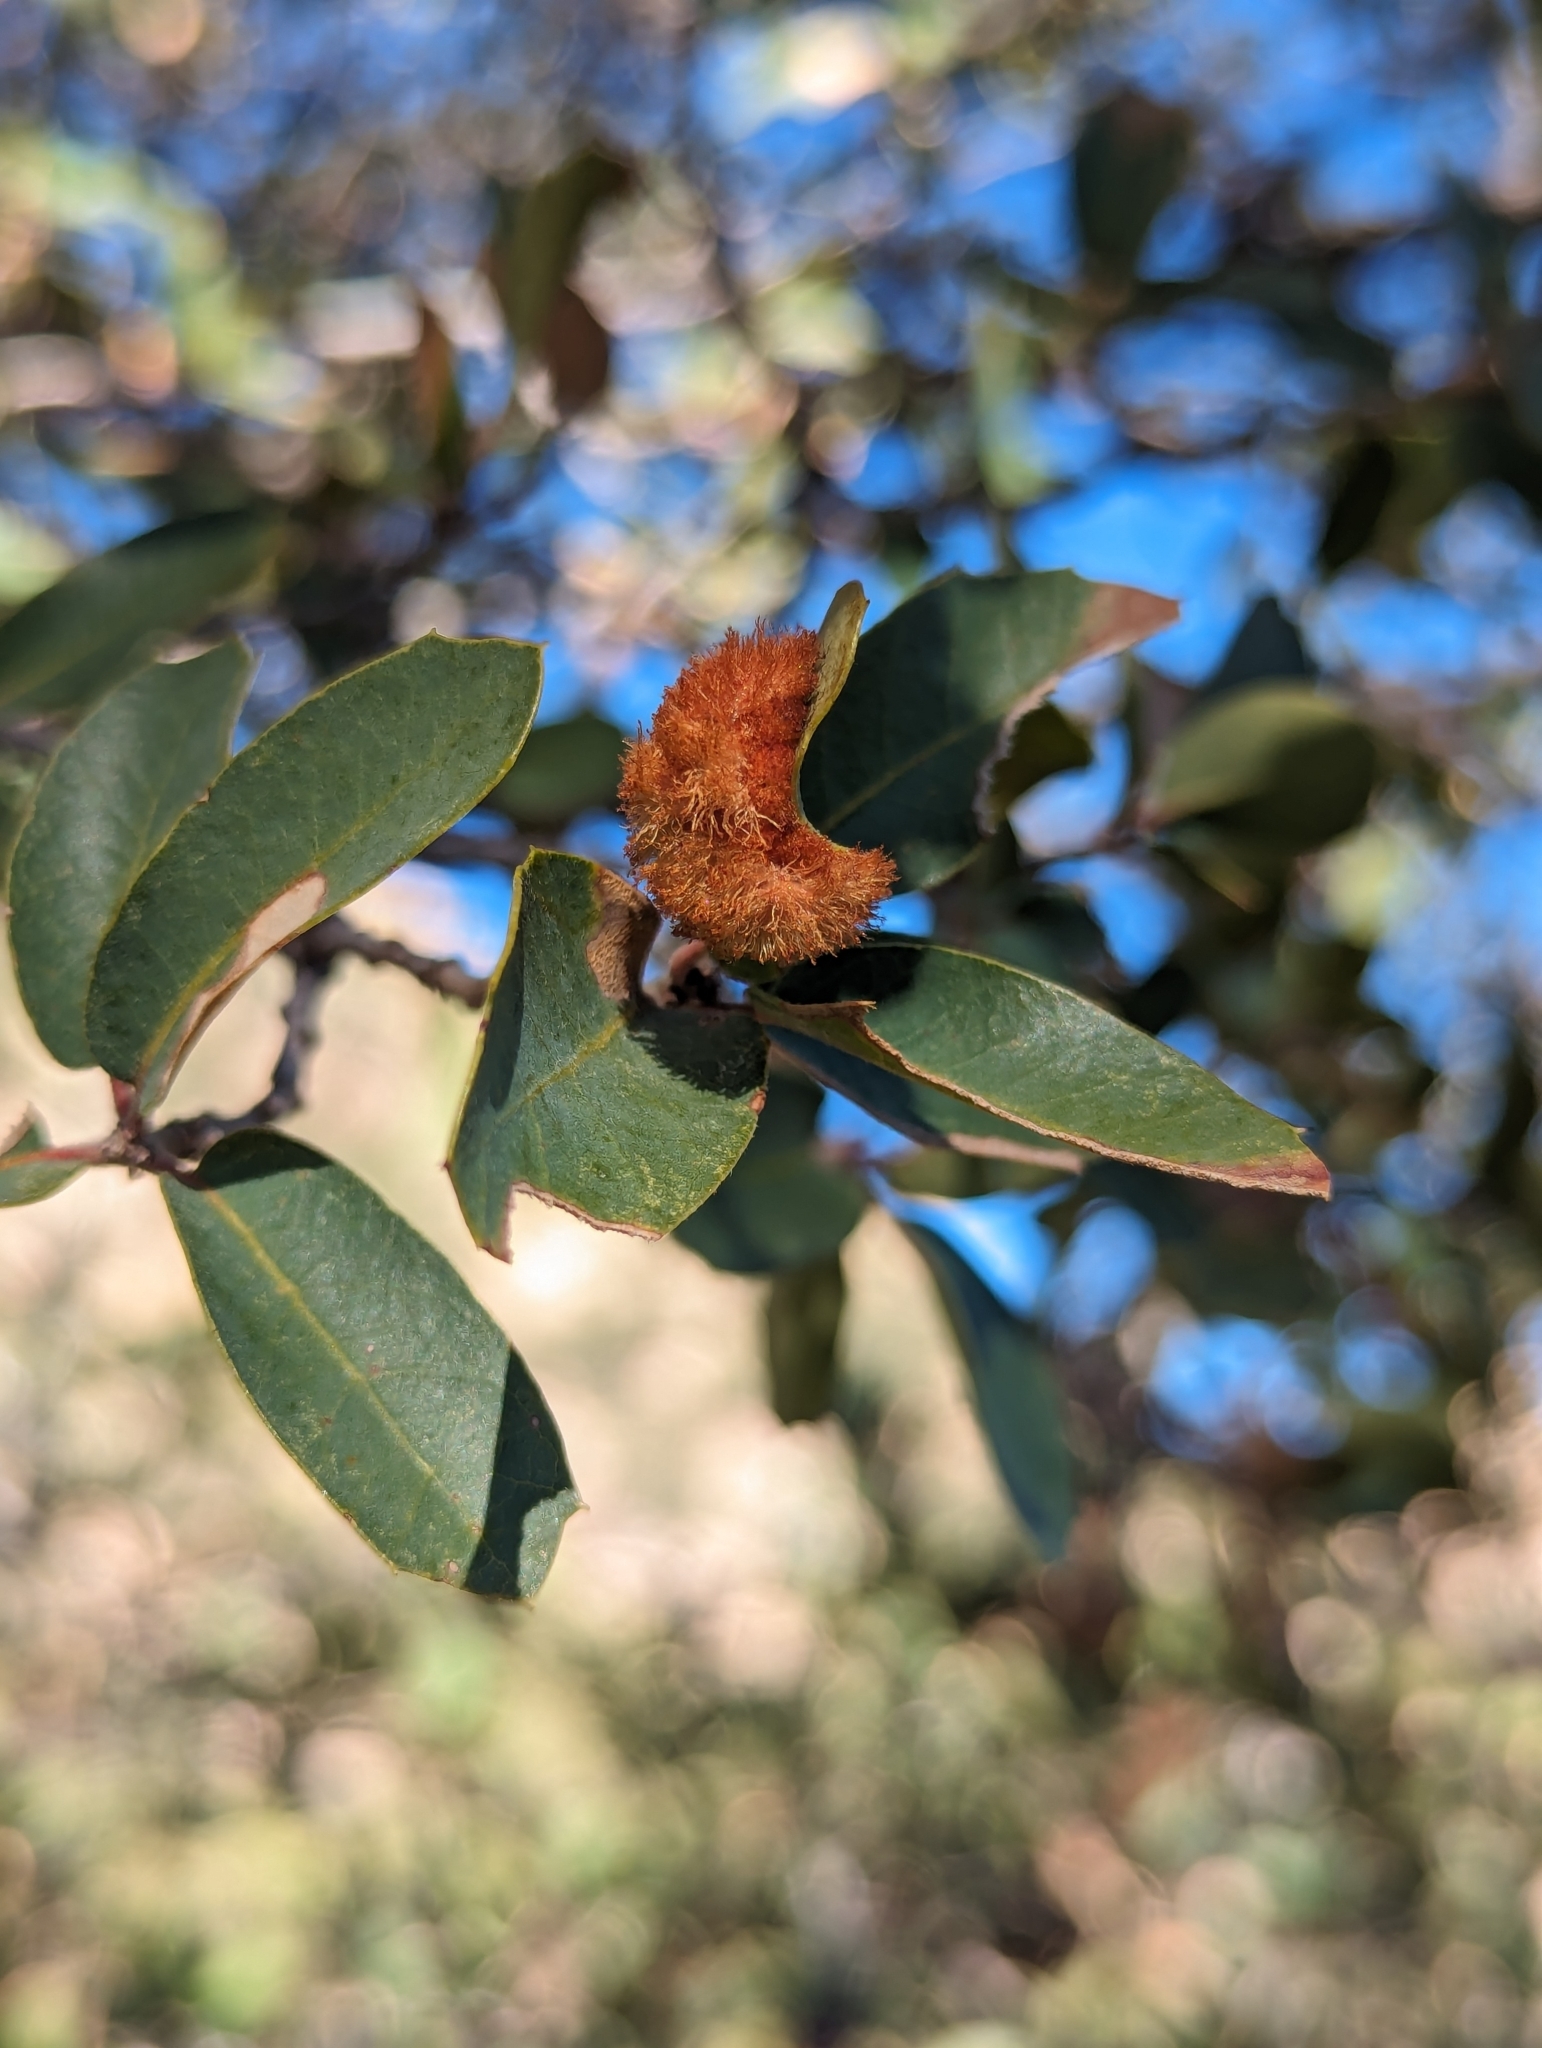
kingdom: Animalia
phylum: Arthropoda
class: Insecta
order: Hymenoptera
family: Cynipidae
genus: Andricus
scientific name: Andricus
